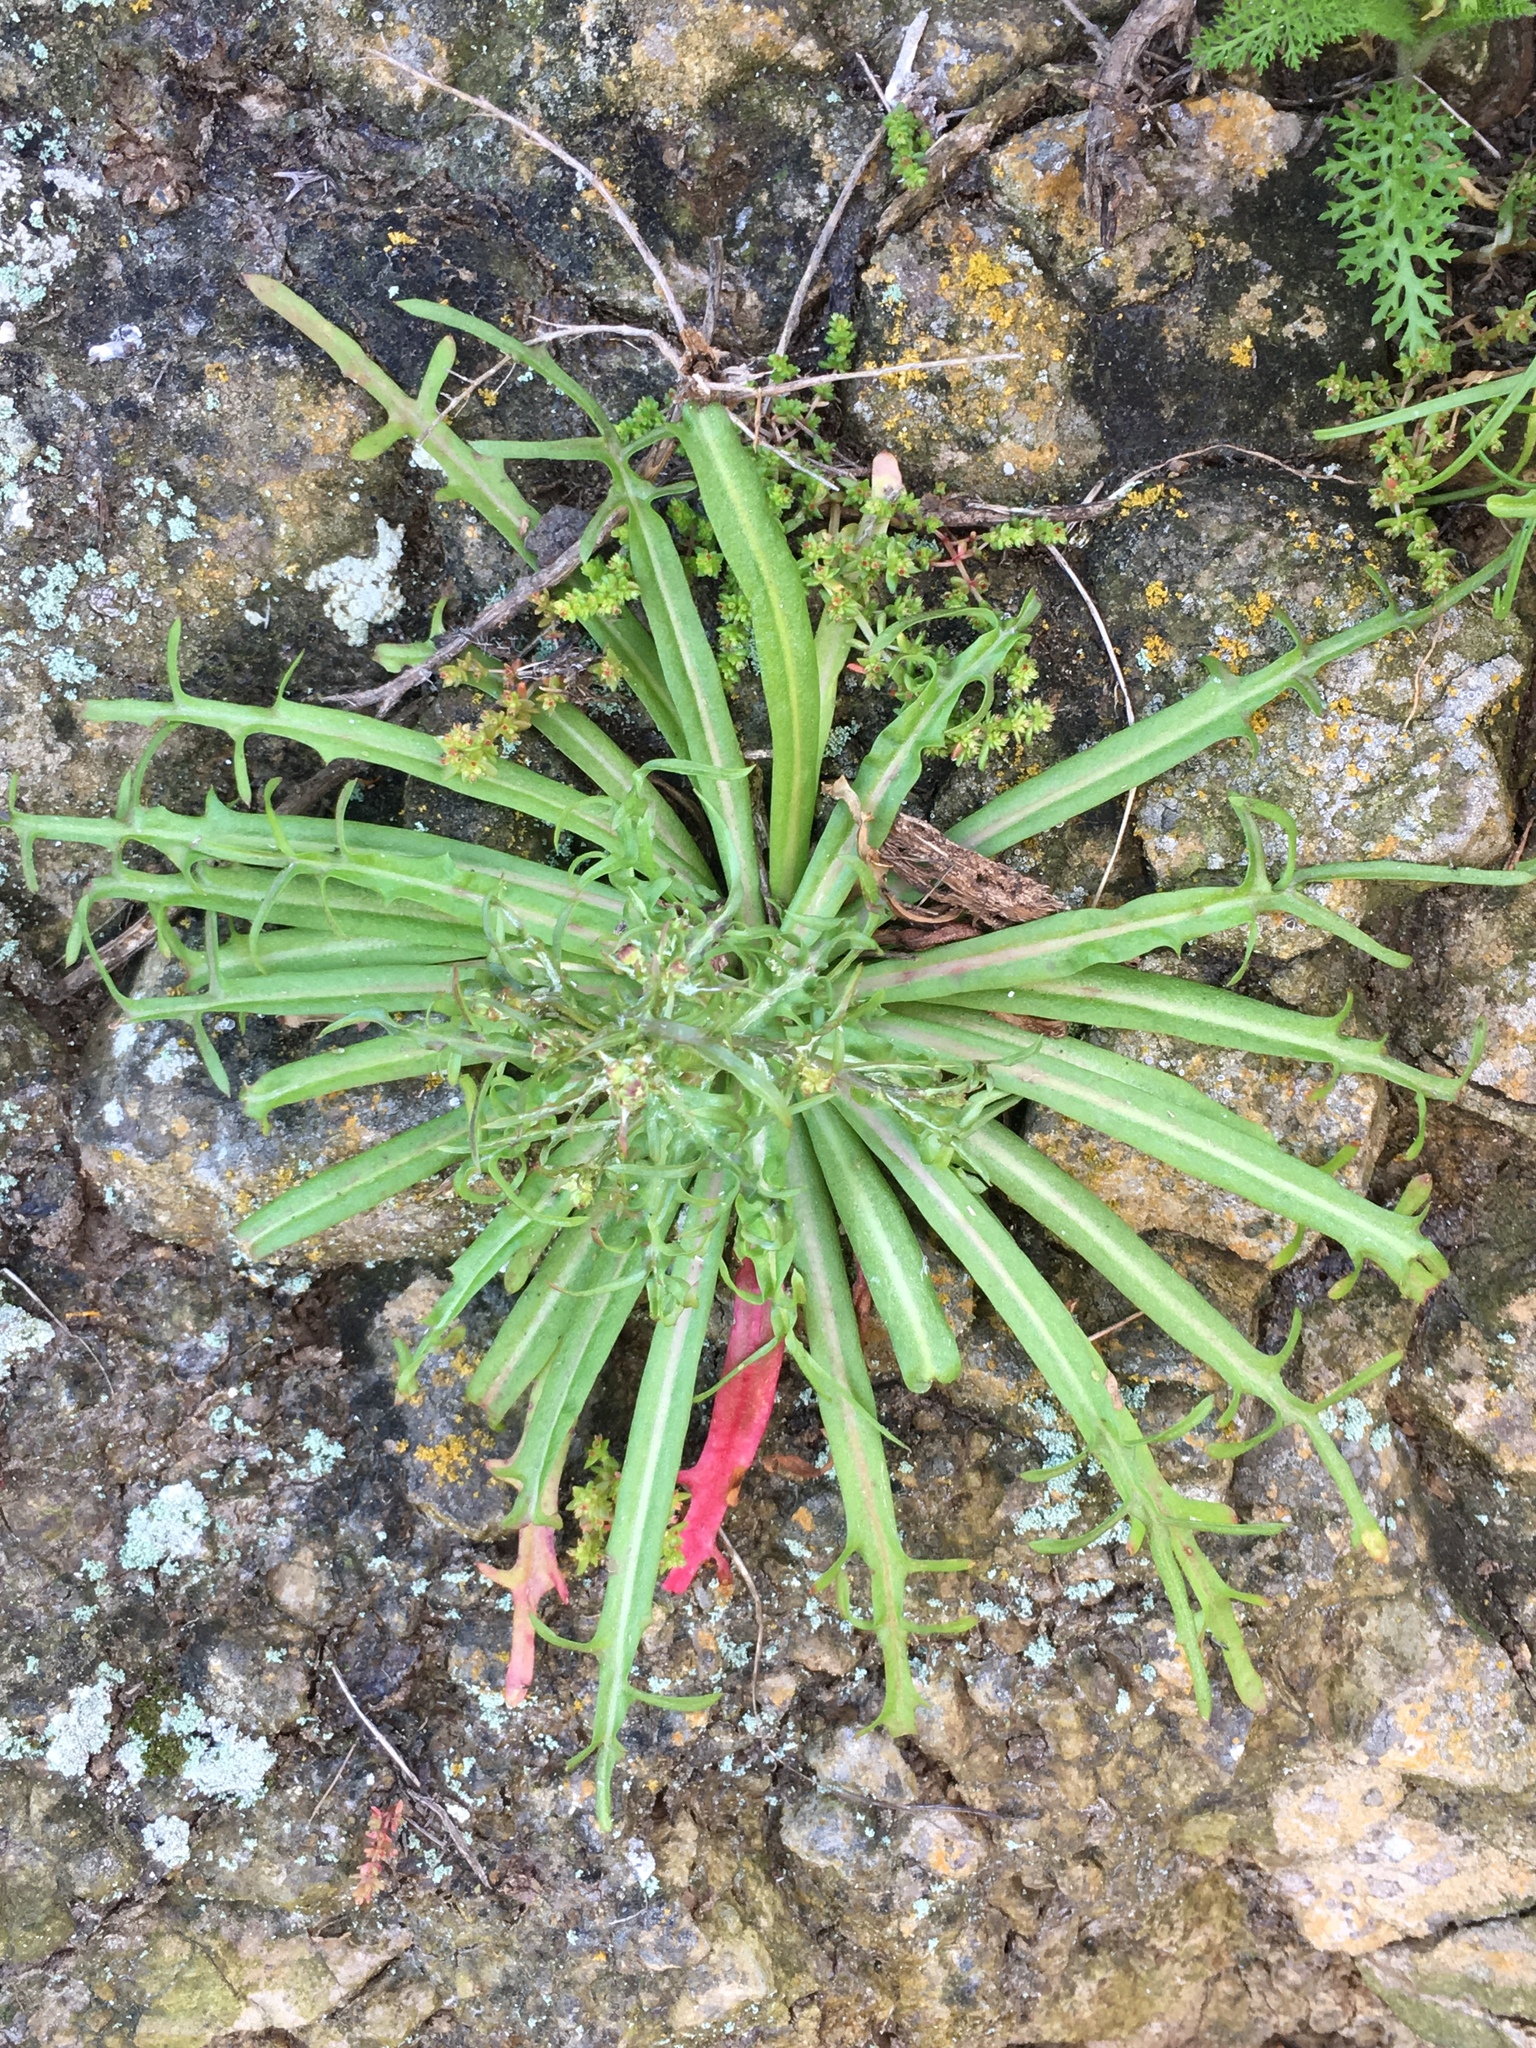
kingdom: Plantae
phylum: Tracheophyta
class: Magnoliopsida
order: Asterales
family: Asteraceae
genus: Malacothrix
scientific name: Malacothrix foliosa
